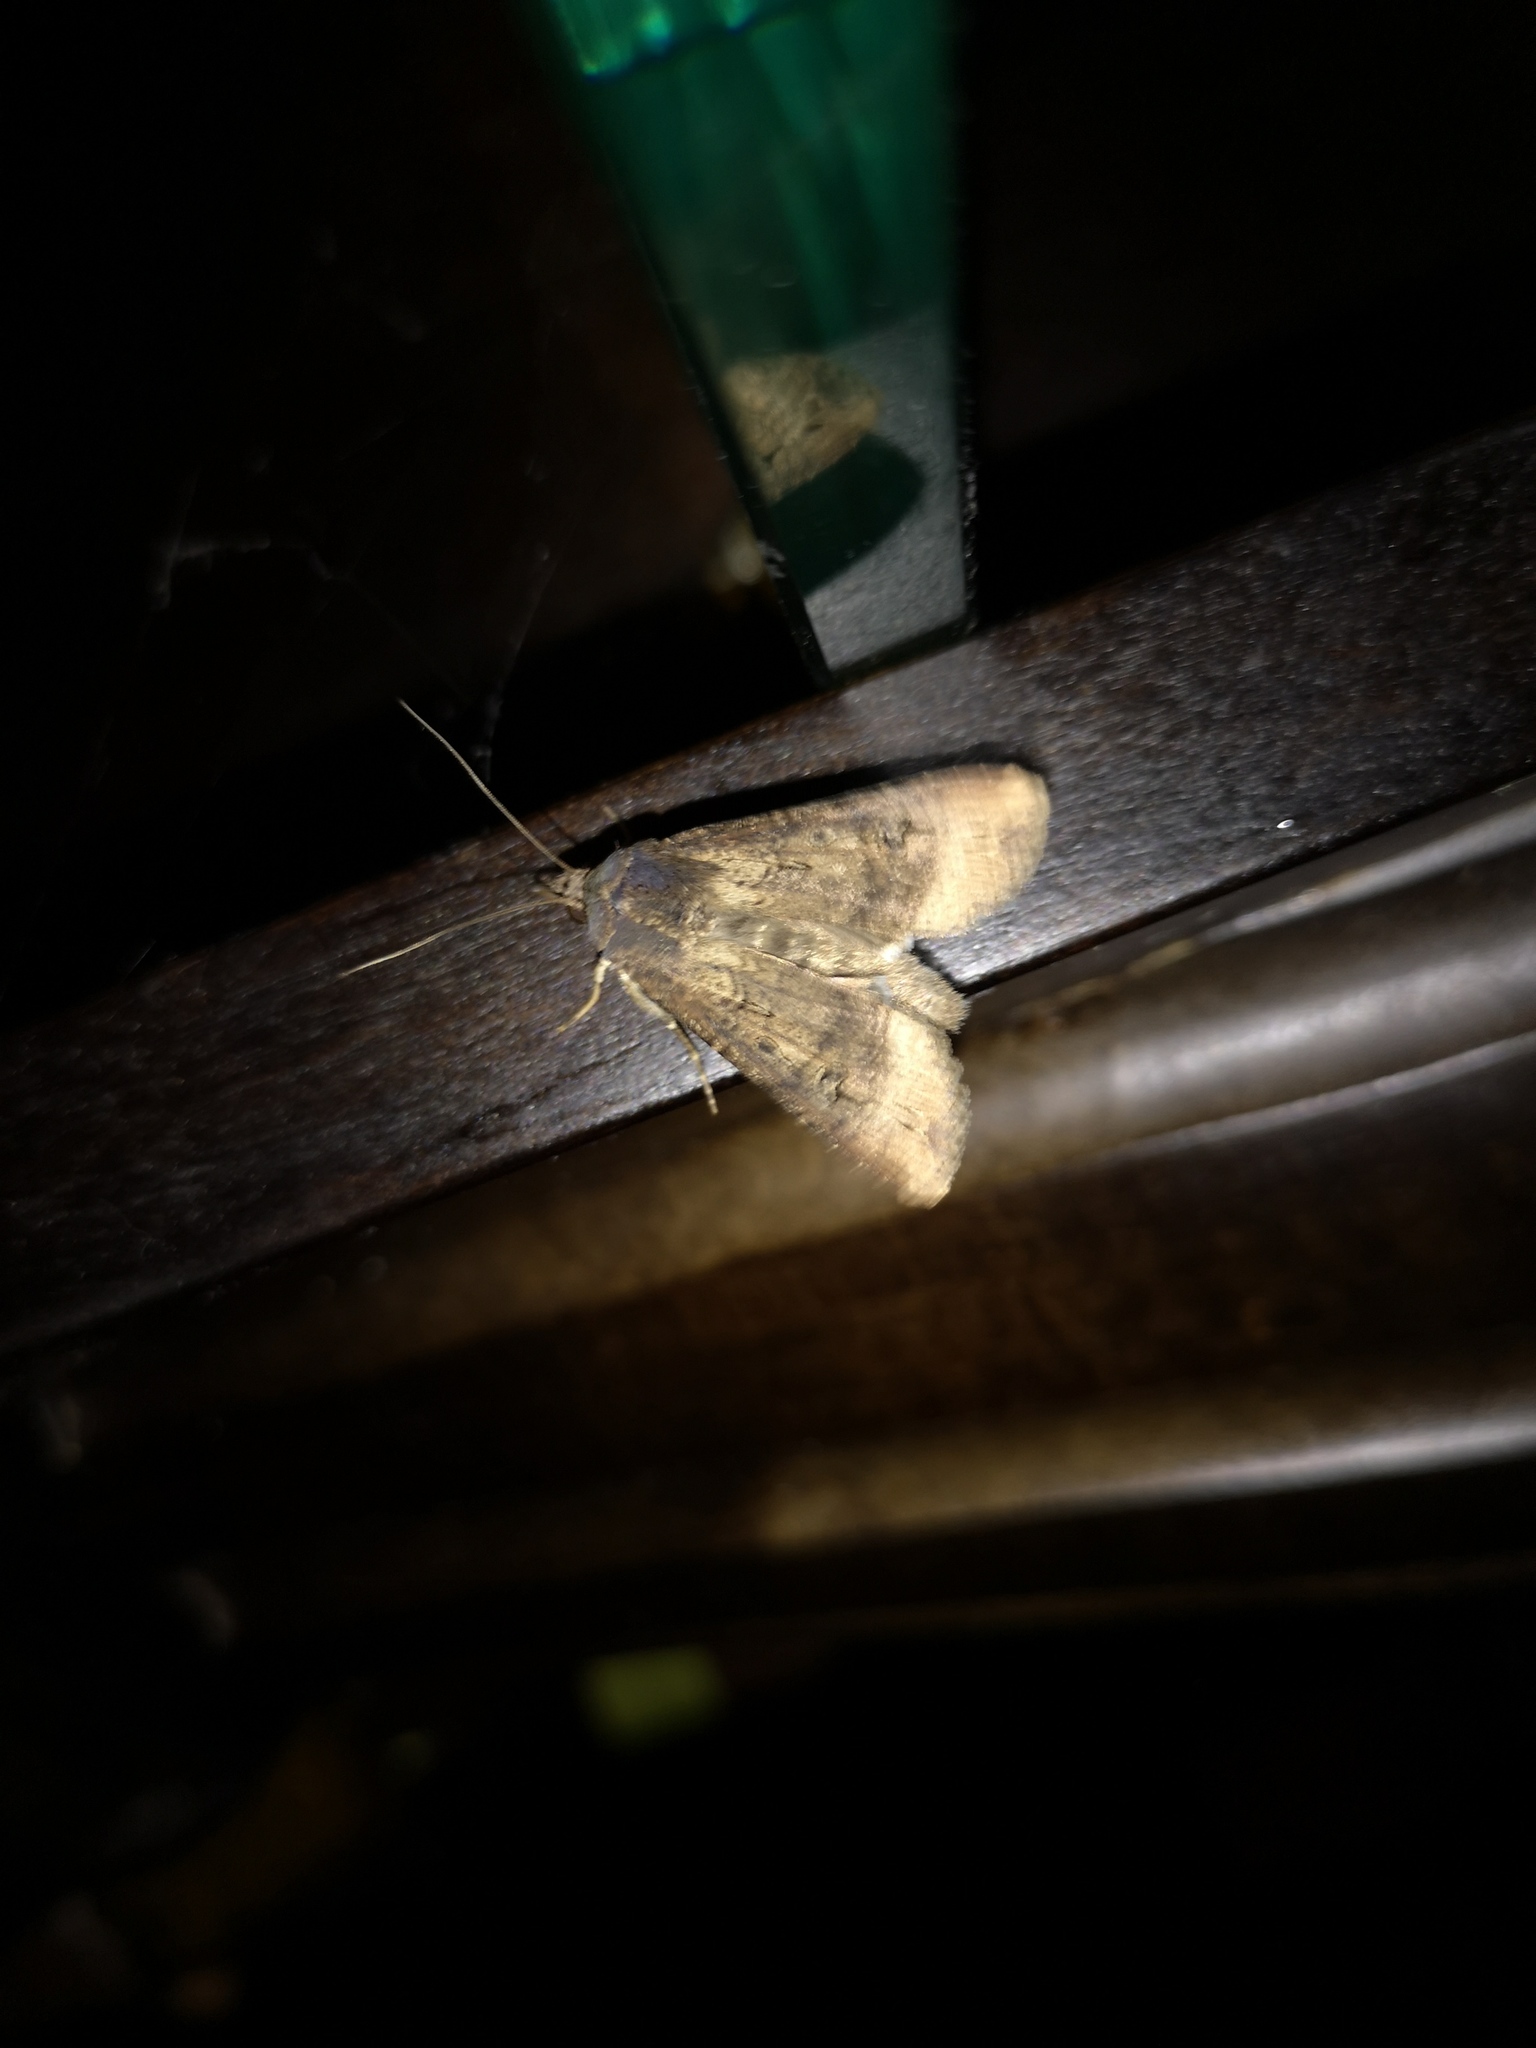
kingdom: Animalia
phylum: Arthropoda
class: Insecta
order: Lepidoptera
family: Noctuidae
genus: Agrotis
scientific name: Agrotis ipsilon
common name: Dark sword-grass
